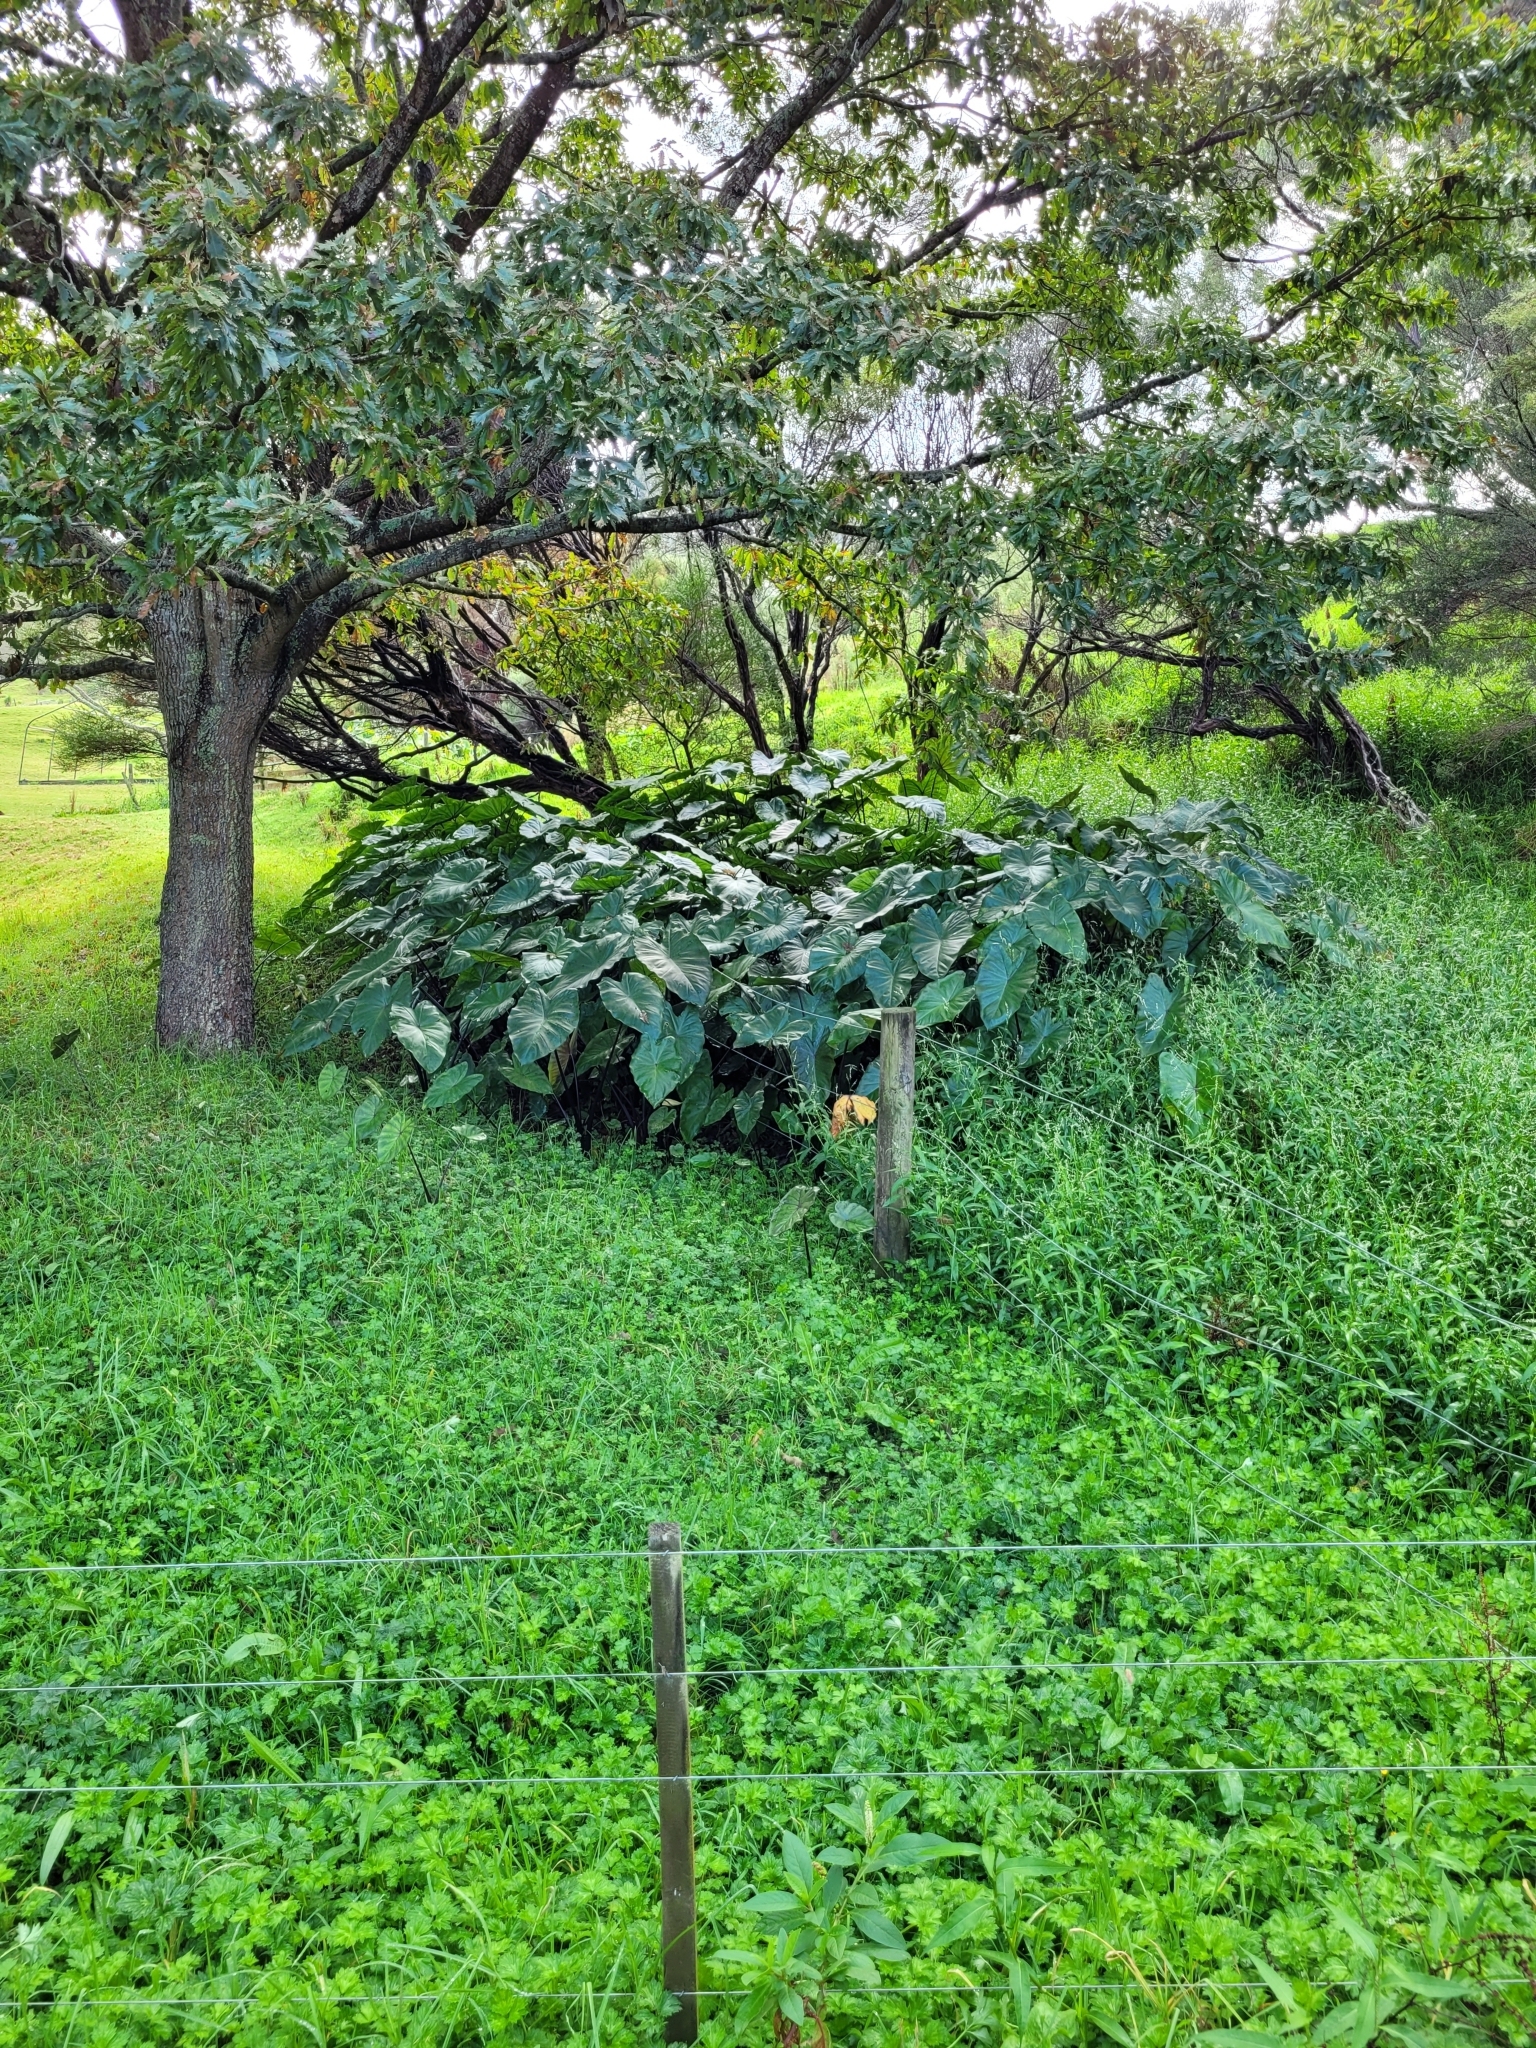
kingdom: Plantae
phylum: Tracheophyta
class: Liliopsida
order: Alismatales
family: Araceae
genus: Colocasia
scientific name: Colocasia fontanesii
